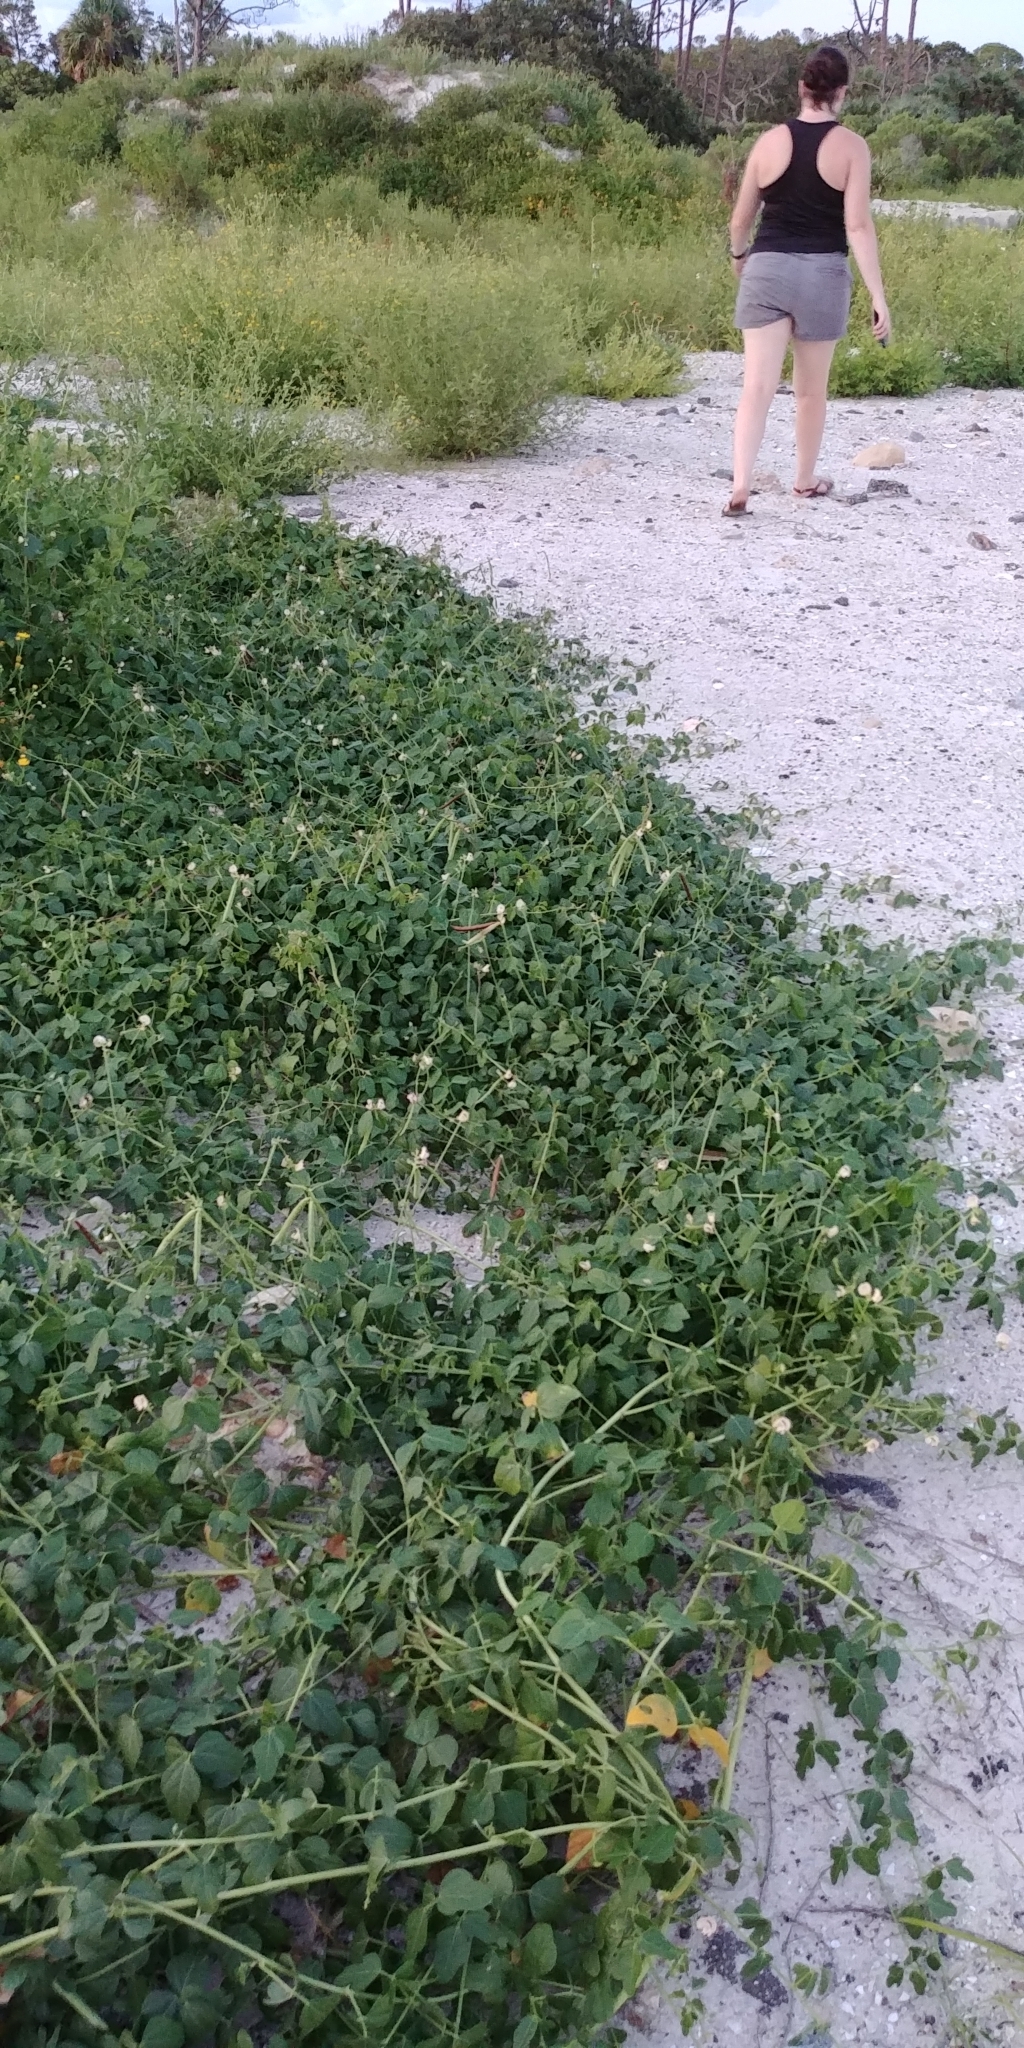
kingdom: Plantae
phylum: Tracheophyta
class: Magnoliopsida
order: Fabales
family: Fabaceae
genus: Strophostyles
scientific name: Strophostyles helvola
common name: Trailing wild bean
